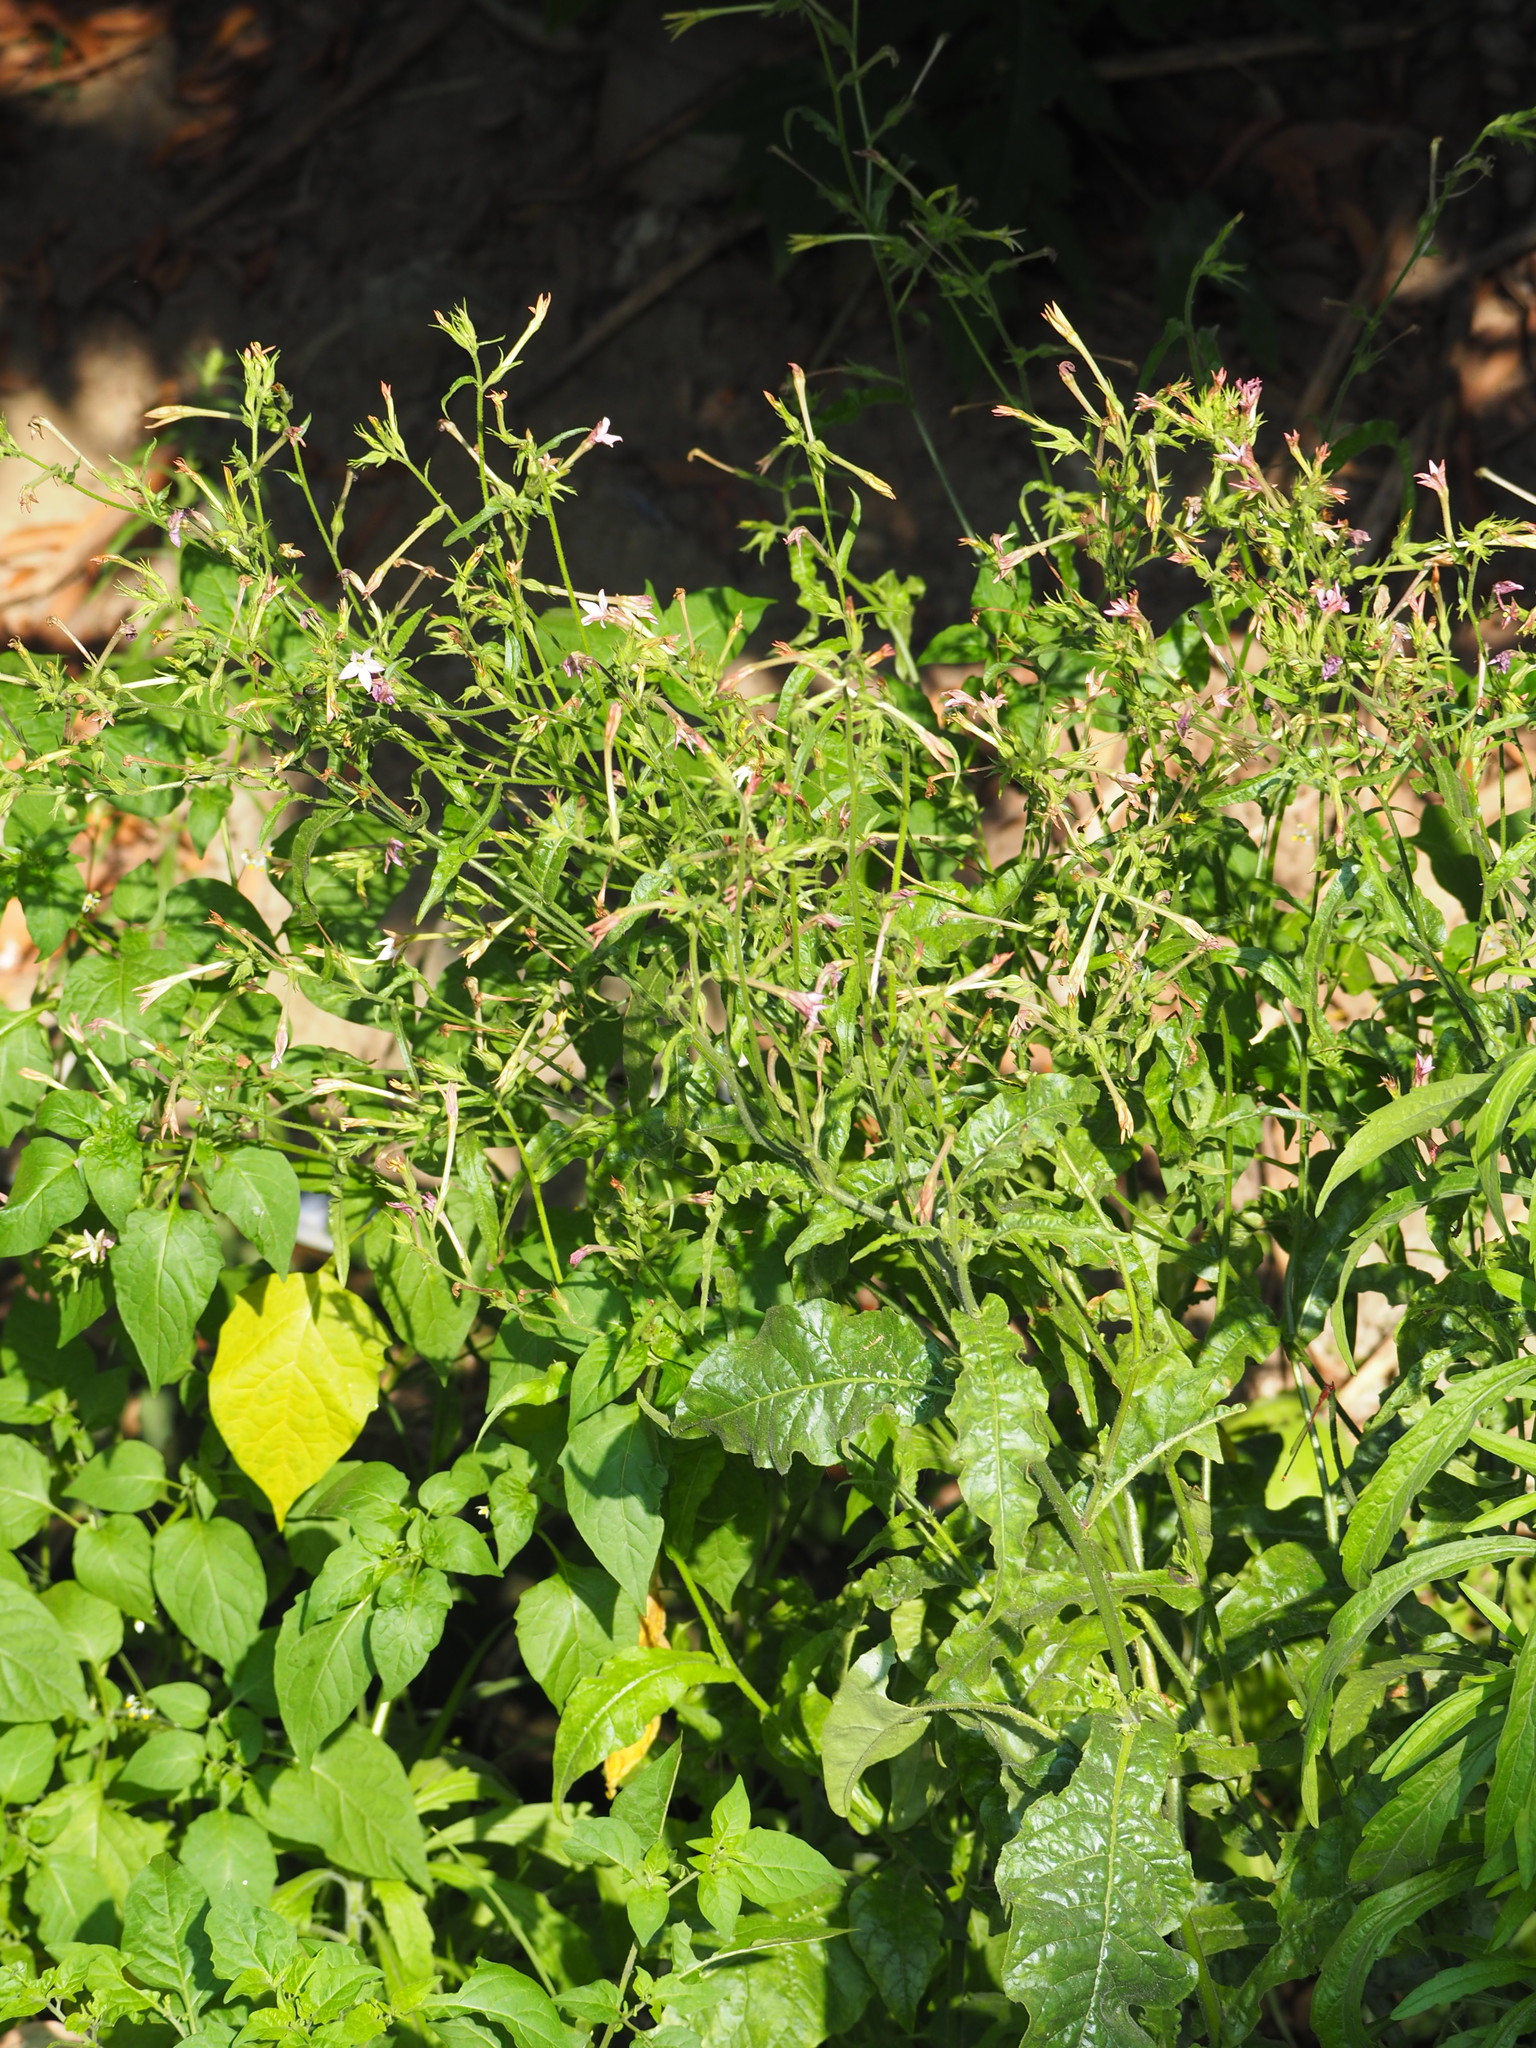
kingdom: Plantae
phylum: Tracheophyta
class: Magnoliopsida
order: Solanales
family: Solanaceae
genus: Nicotiana
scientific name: Nicotiana plumbaginifolia
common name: Tex-mex tobacco
